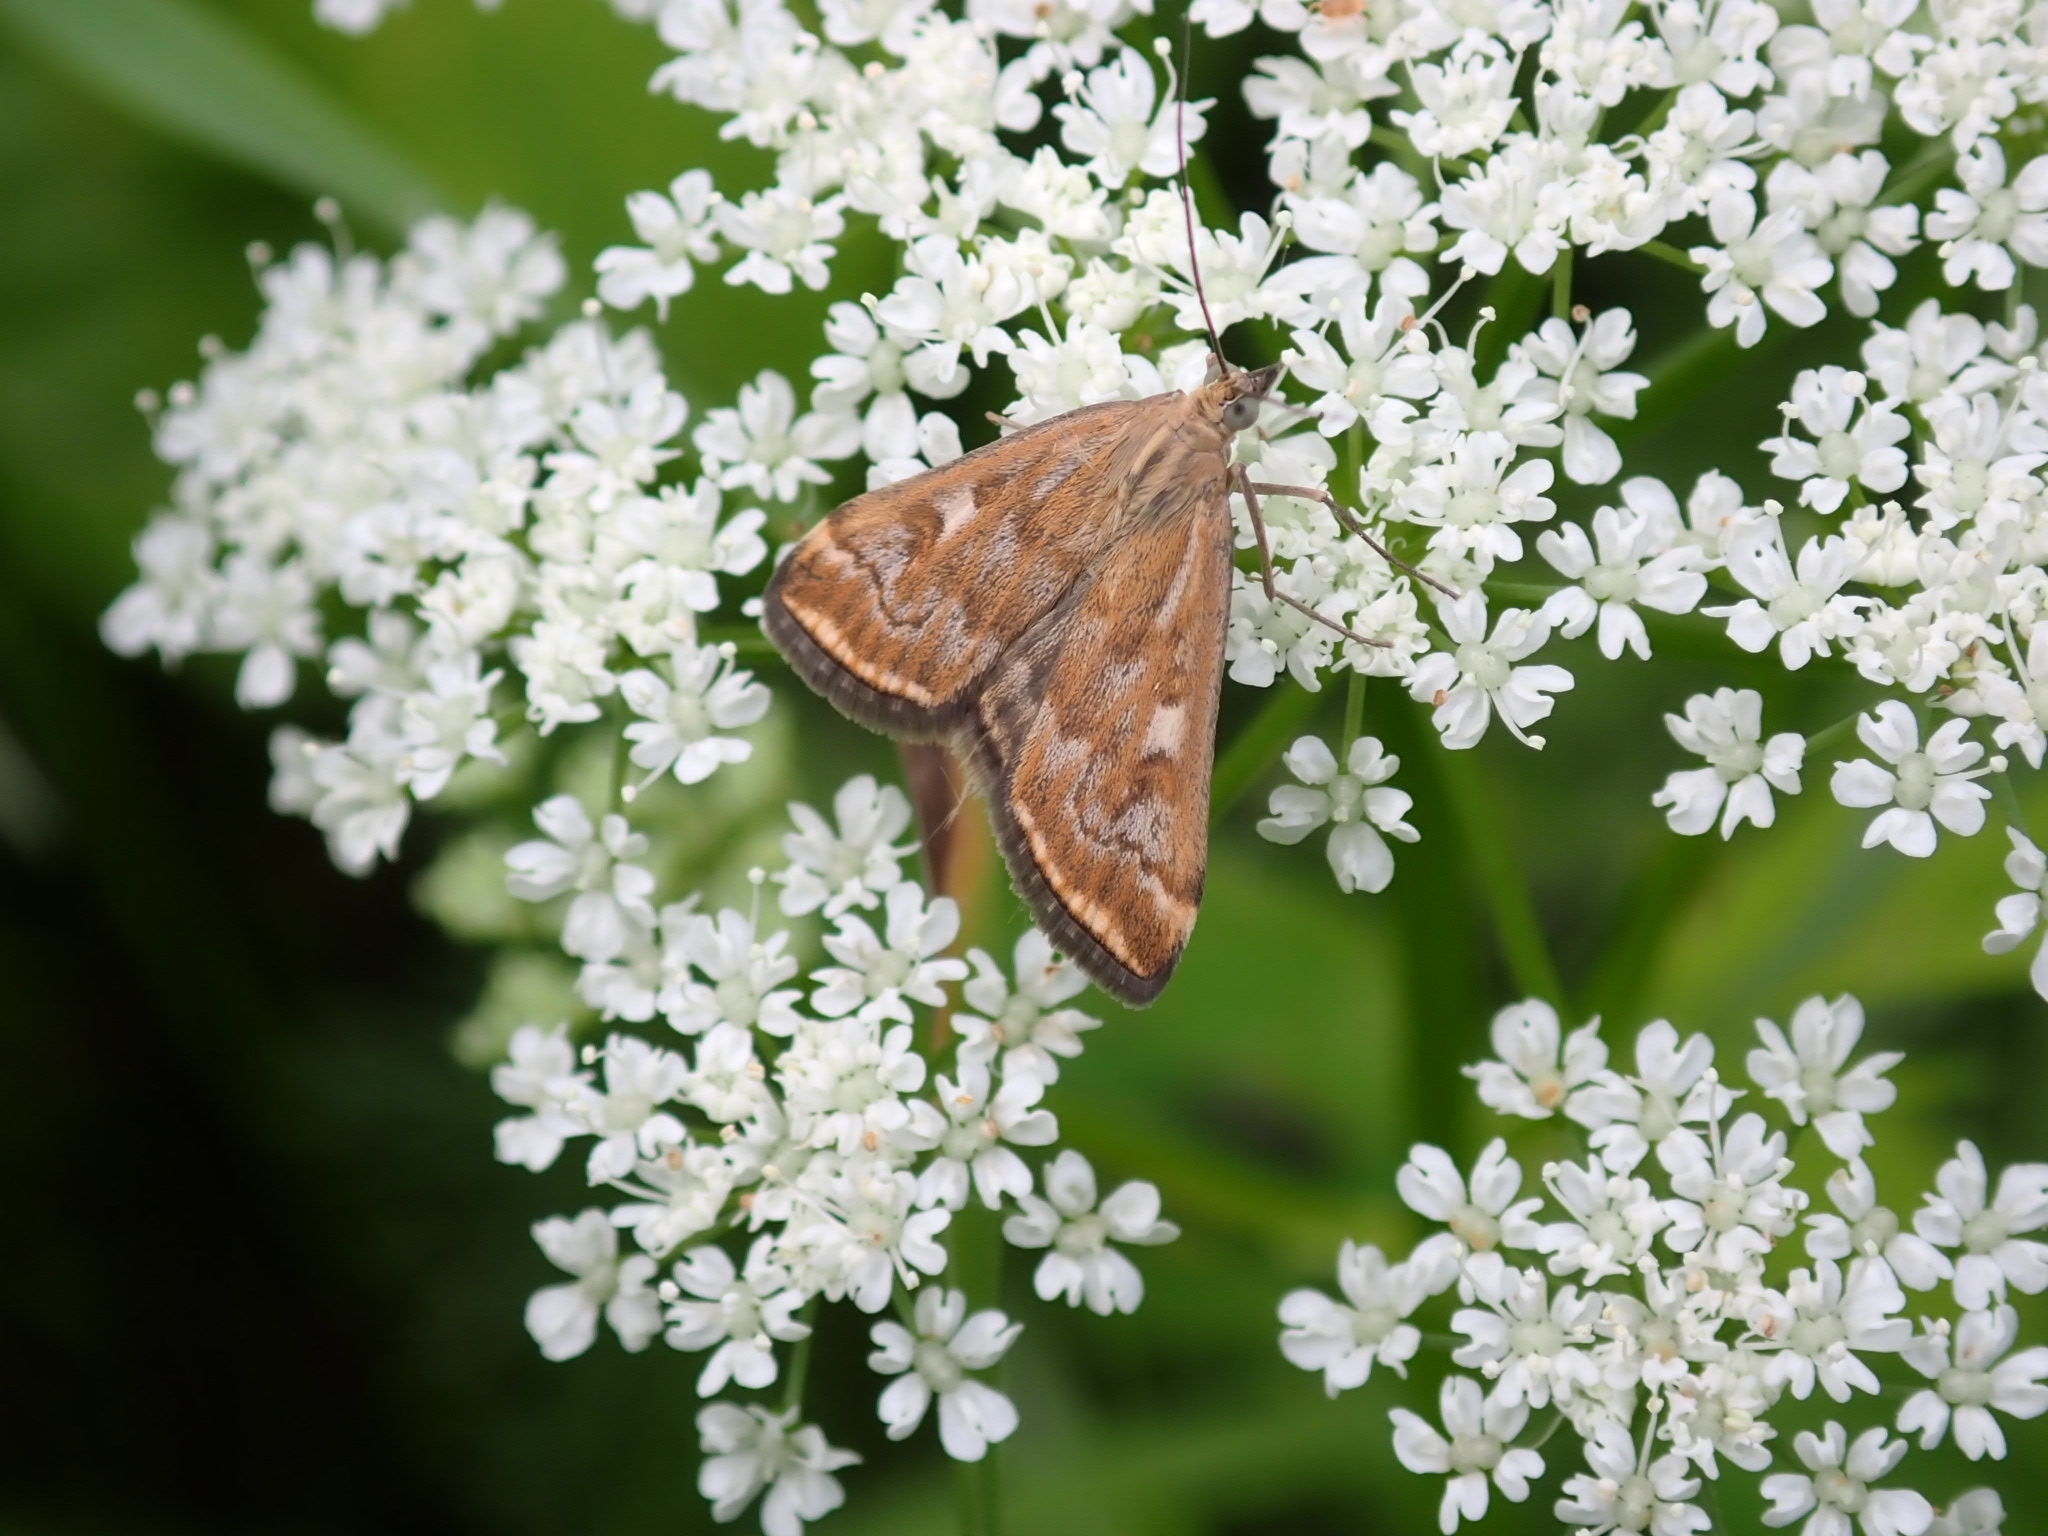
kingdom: Animalia
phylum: Arthropoda
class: Insecta
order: Lepidoptera
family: Crambidae
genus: Loxostege
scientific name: Loxostege sticticalis
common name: Crambid moth
